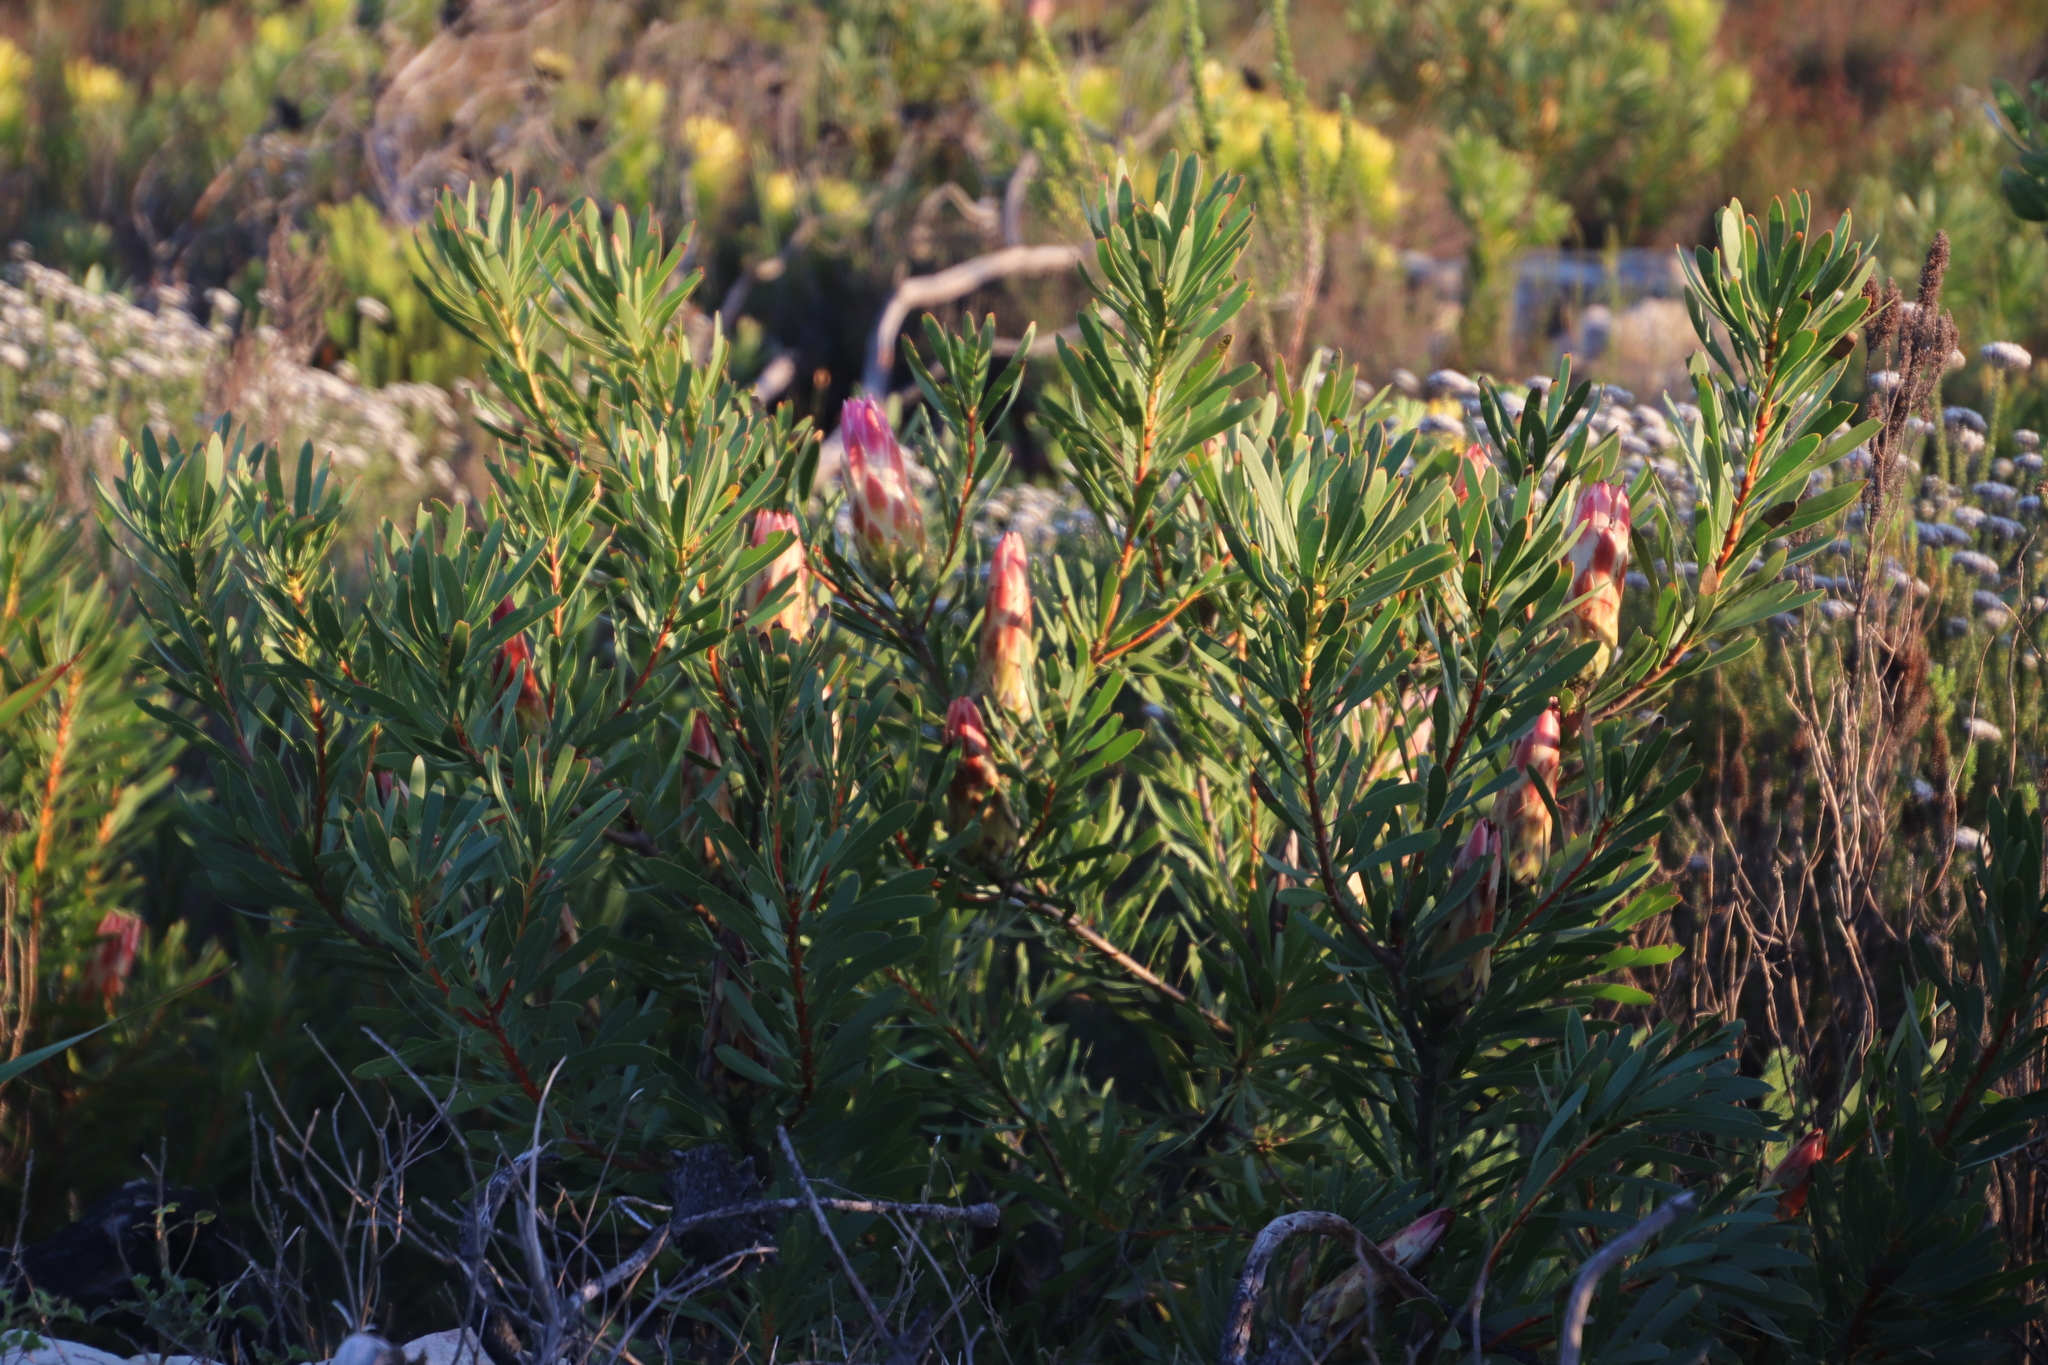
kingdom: Plantae
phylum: Tracheophyta
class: Magnoliopsida
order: Proteales
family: Proteaceae
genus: Protea
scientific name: Protea repens
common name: Sugarbush
